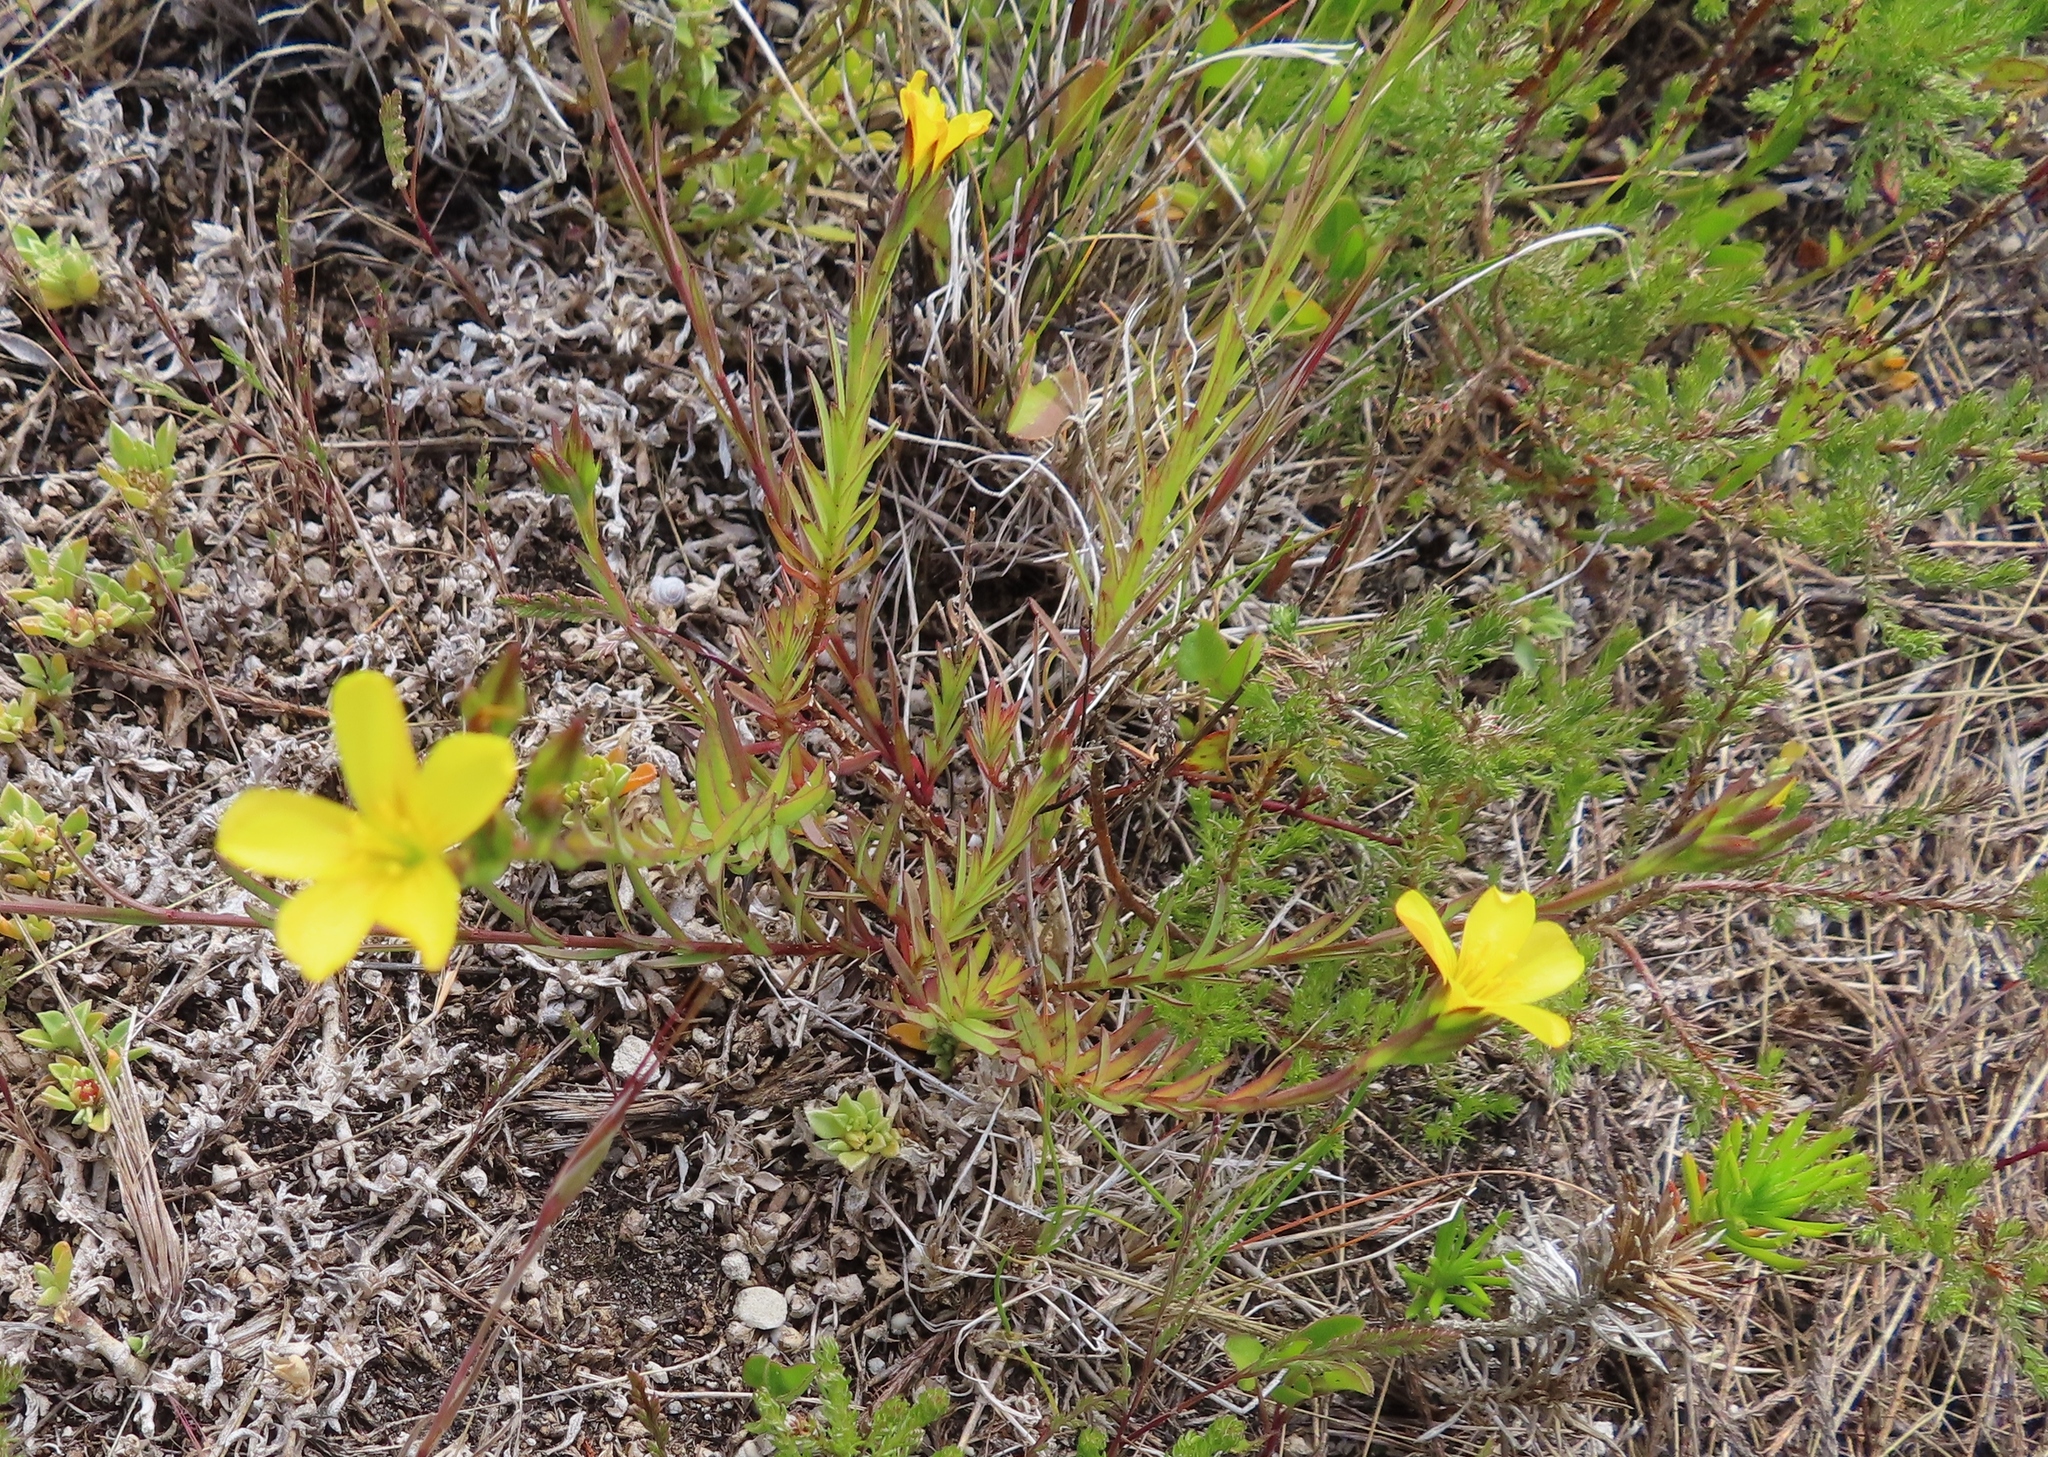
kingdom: Plantae
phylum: Tracheophyta
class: Magnoliopsida
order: Malpighiales
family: Linaceae
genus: Linum
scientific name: Linum africanum
